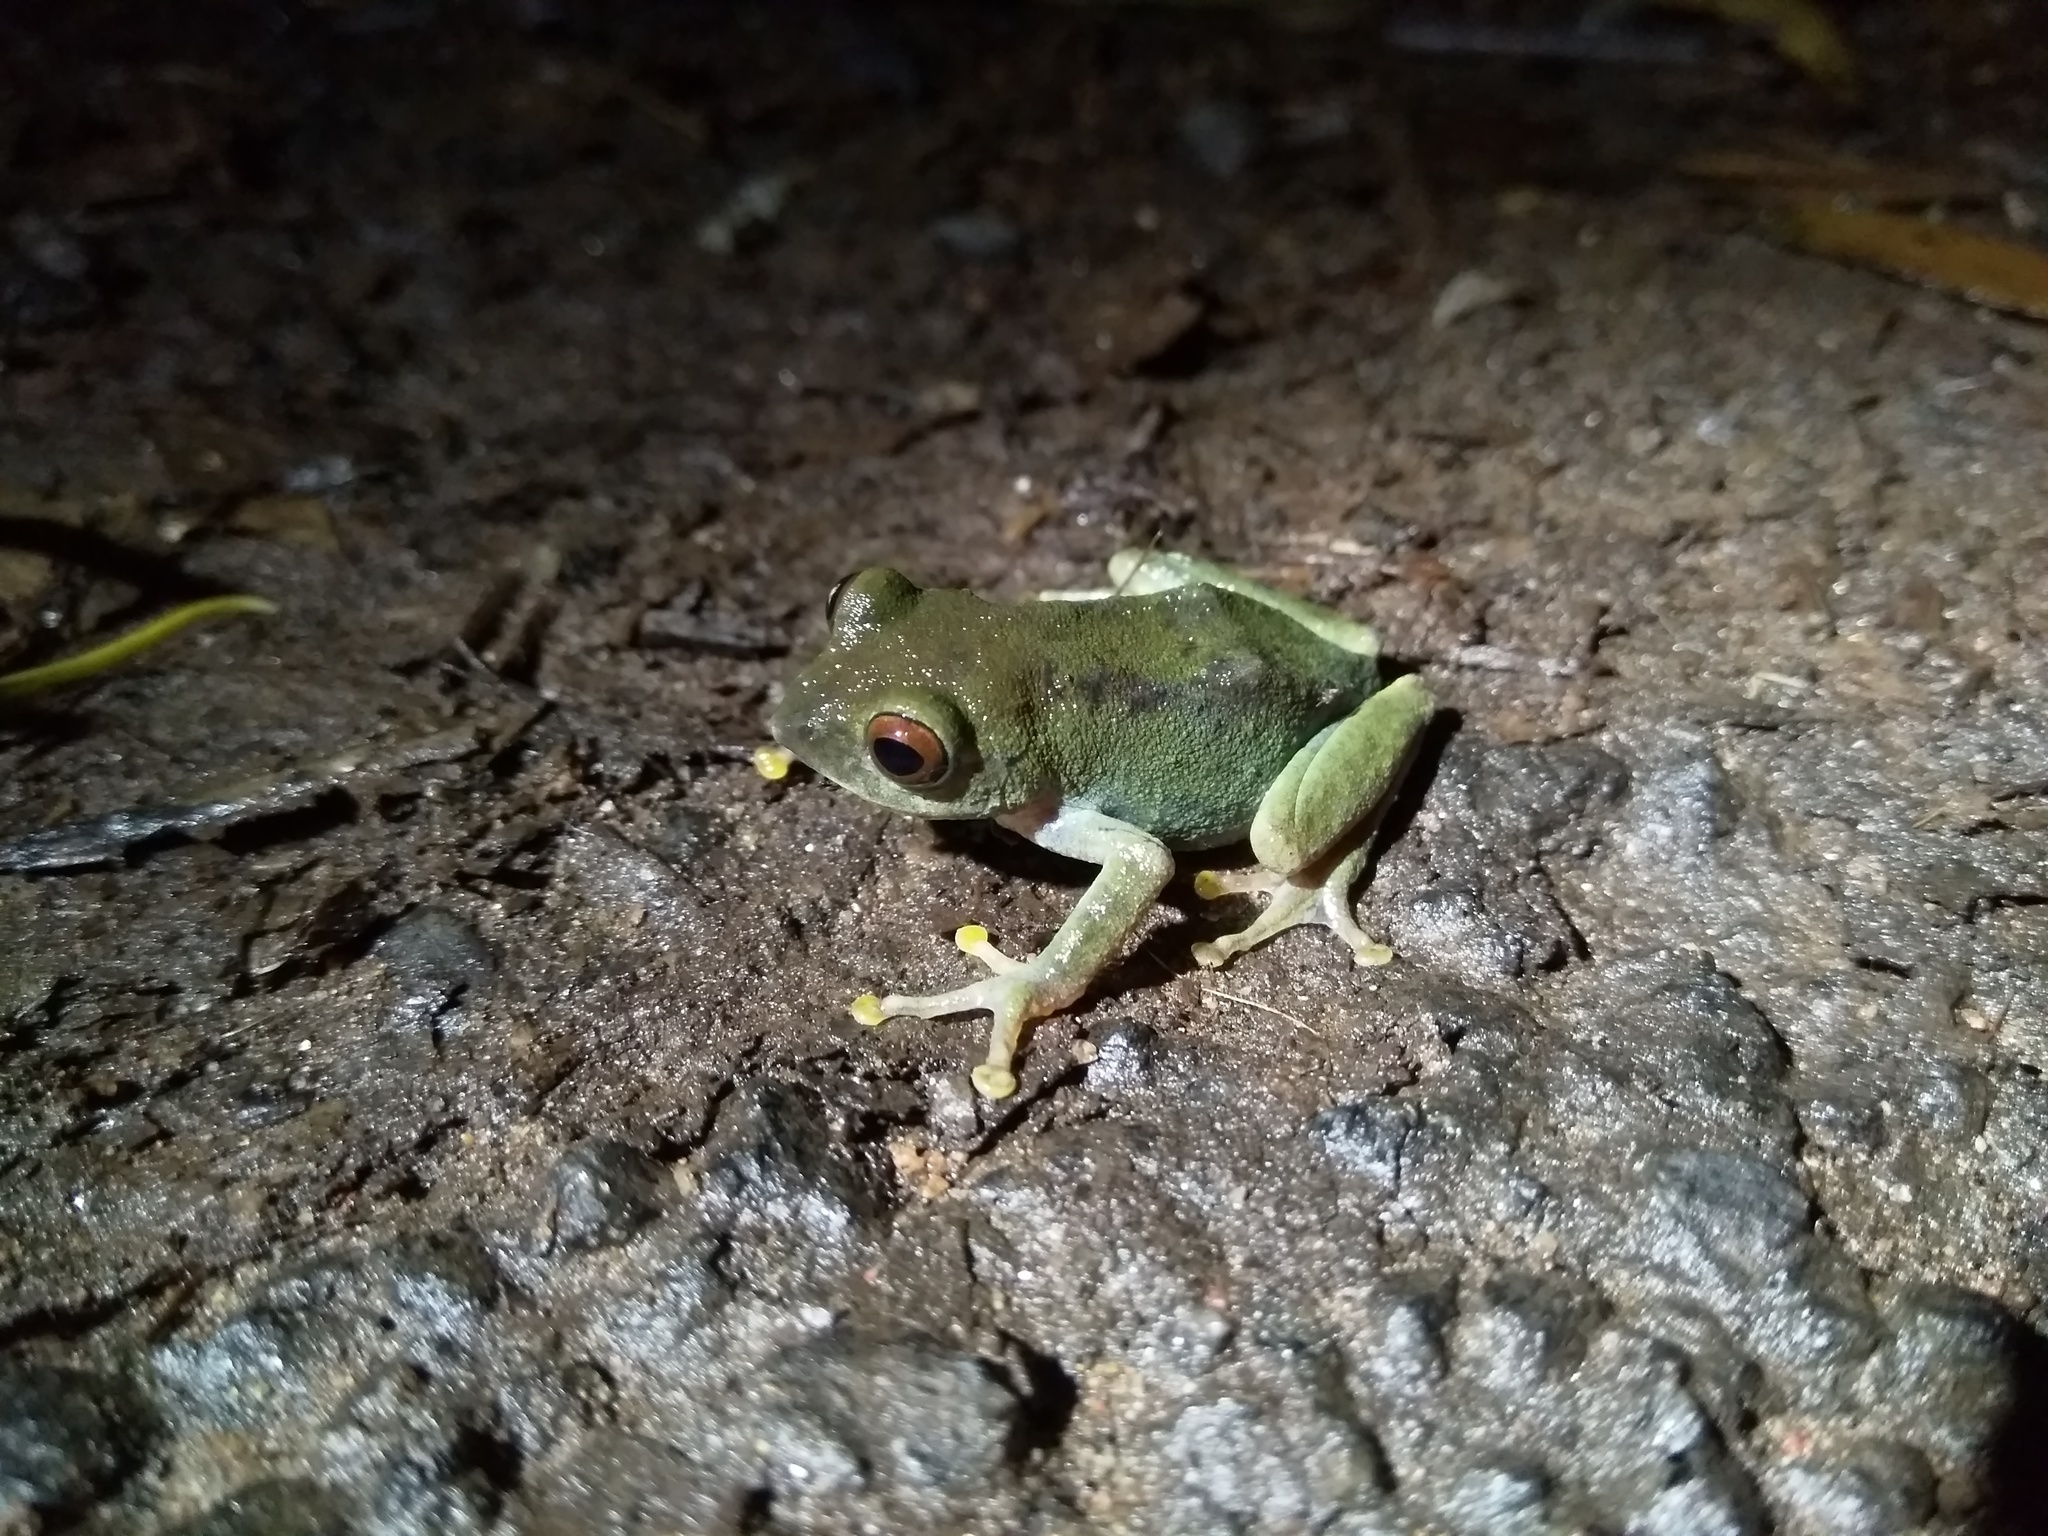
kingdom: Animalia
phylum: Chordata
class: Amphibia
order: Anura
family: Rhacophoridae
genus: Raorchestes
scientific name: Raorchestes beddomii
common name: Beddome's bush frog
